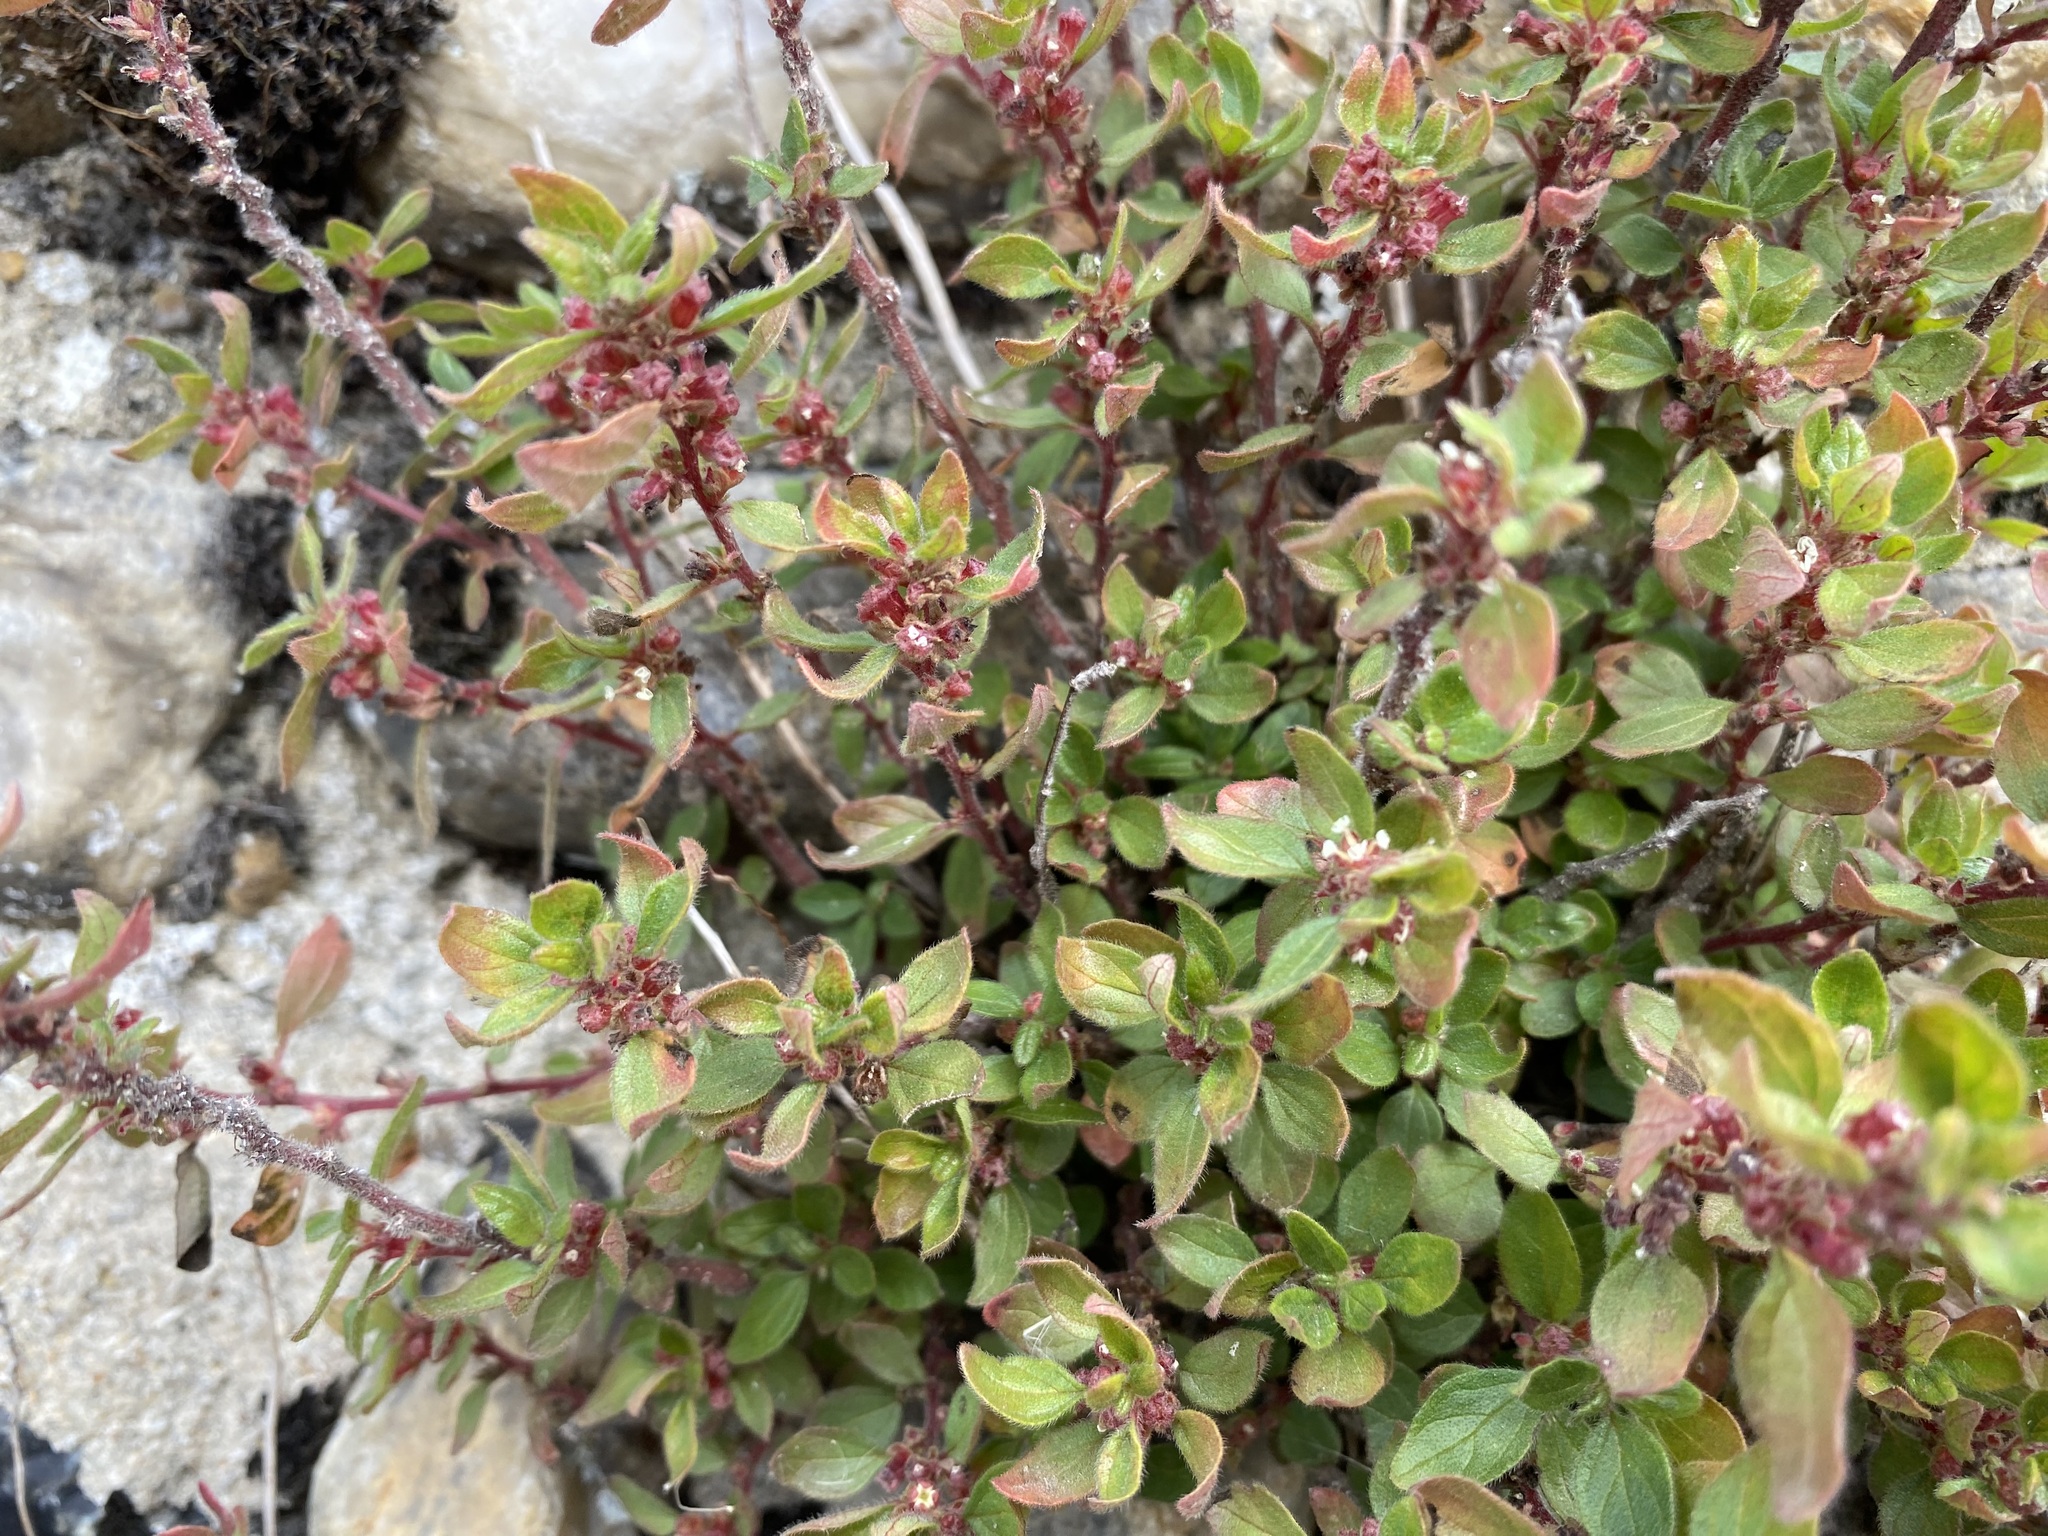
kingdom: Plantae
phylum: Tracheophyta
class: Magnoliopsida
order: Rosales
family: Urticaceae
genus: Parietaria
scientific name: Parietaria judaica
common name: Pellitory-of-the-wall
